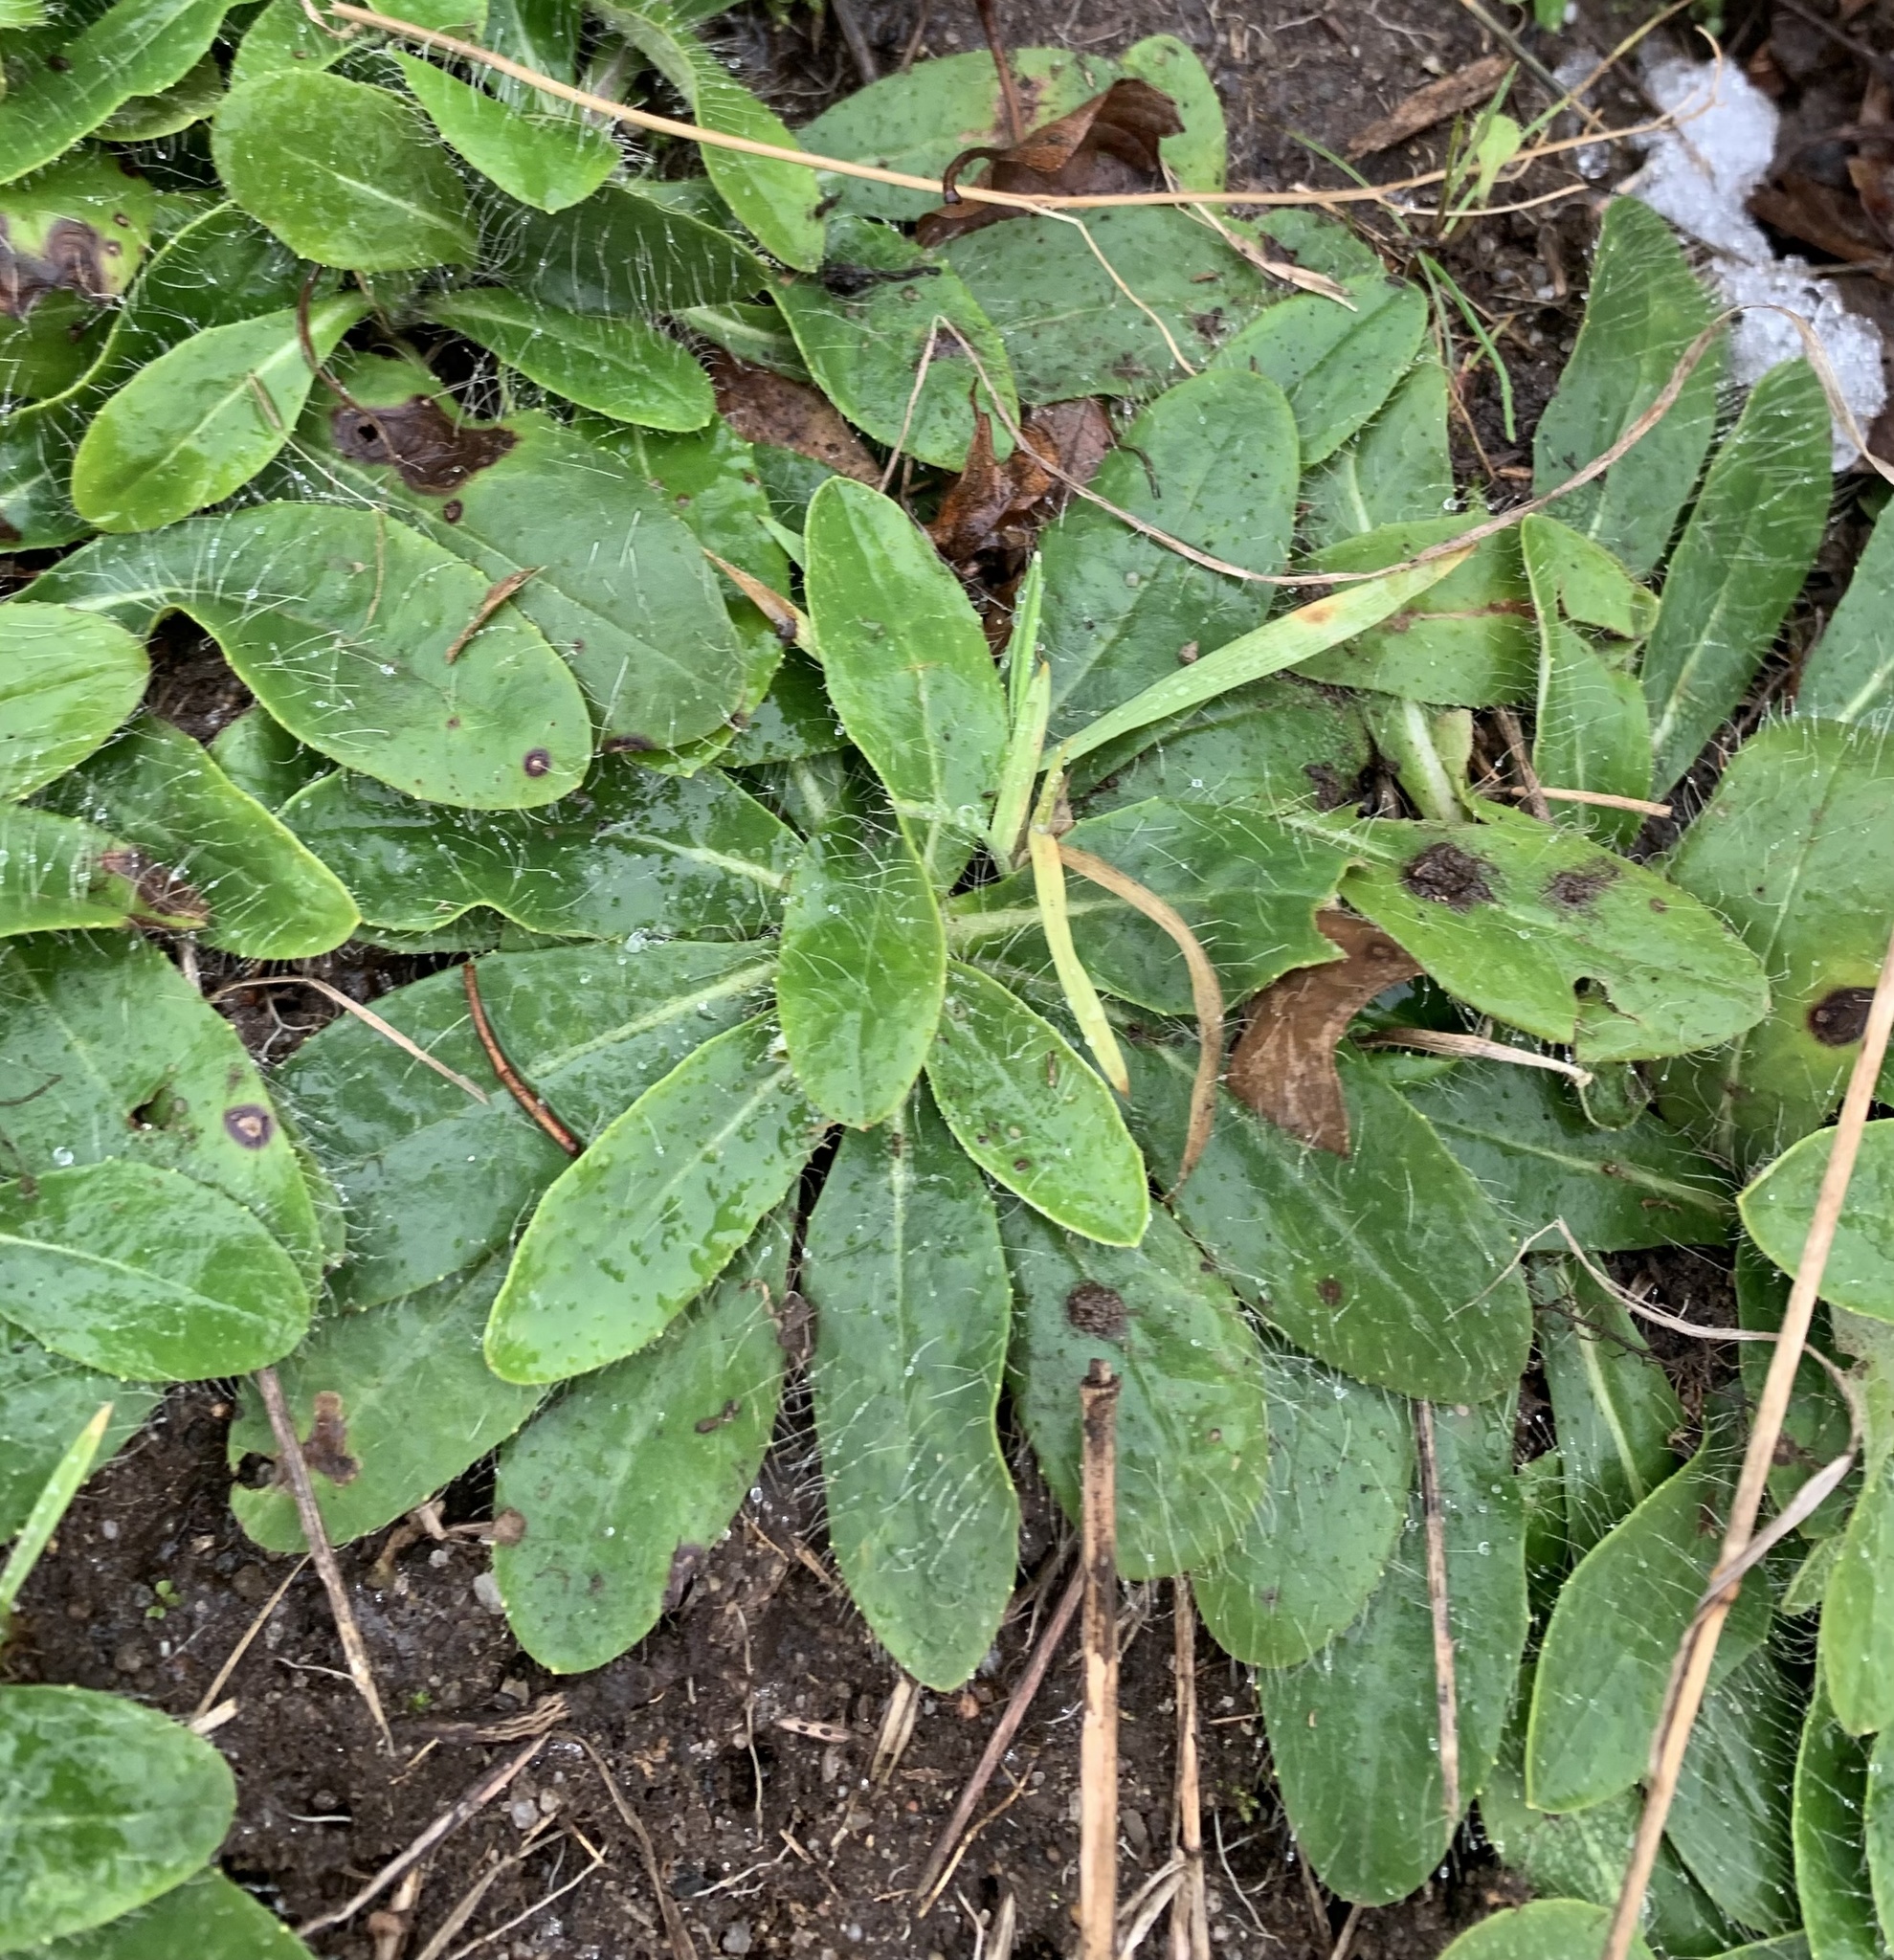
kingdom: Plantae
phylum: Tracheophyta
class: Magnoliopsida
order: Asterales
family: Asteraceae
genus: Pilosella
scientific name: Pilosella officinarum
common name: Mouse-ear hawkweed
